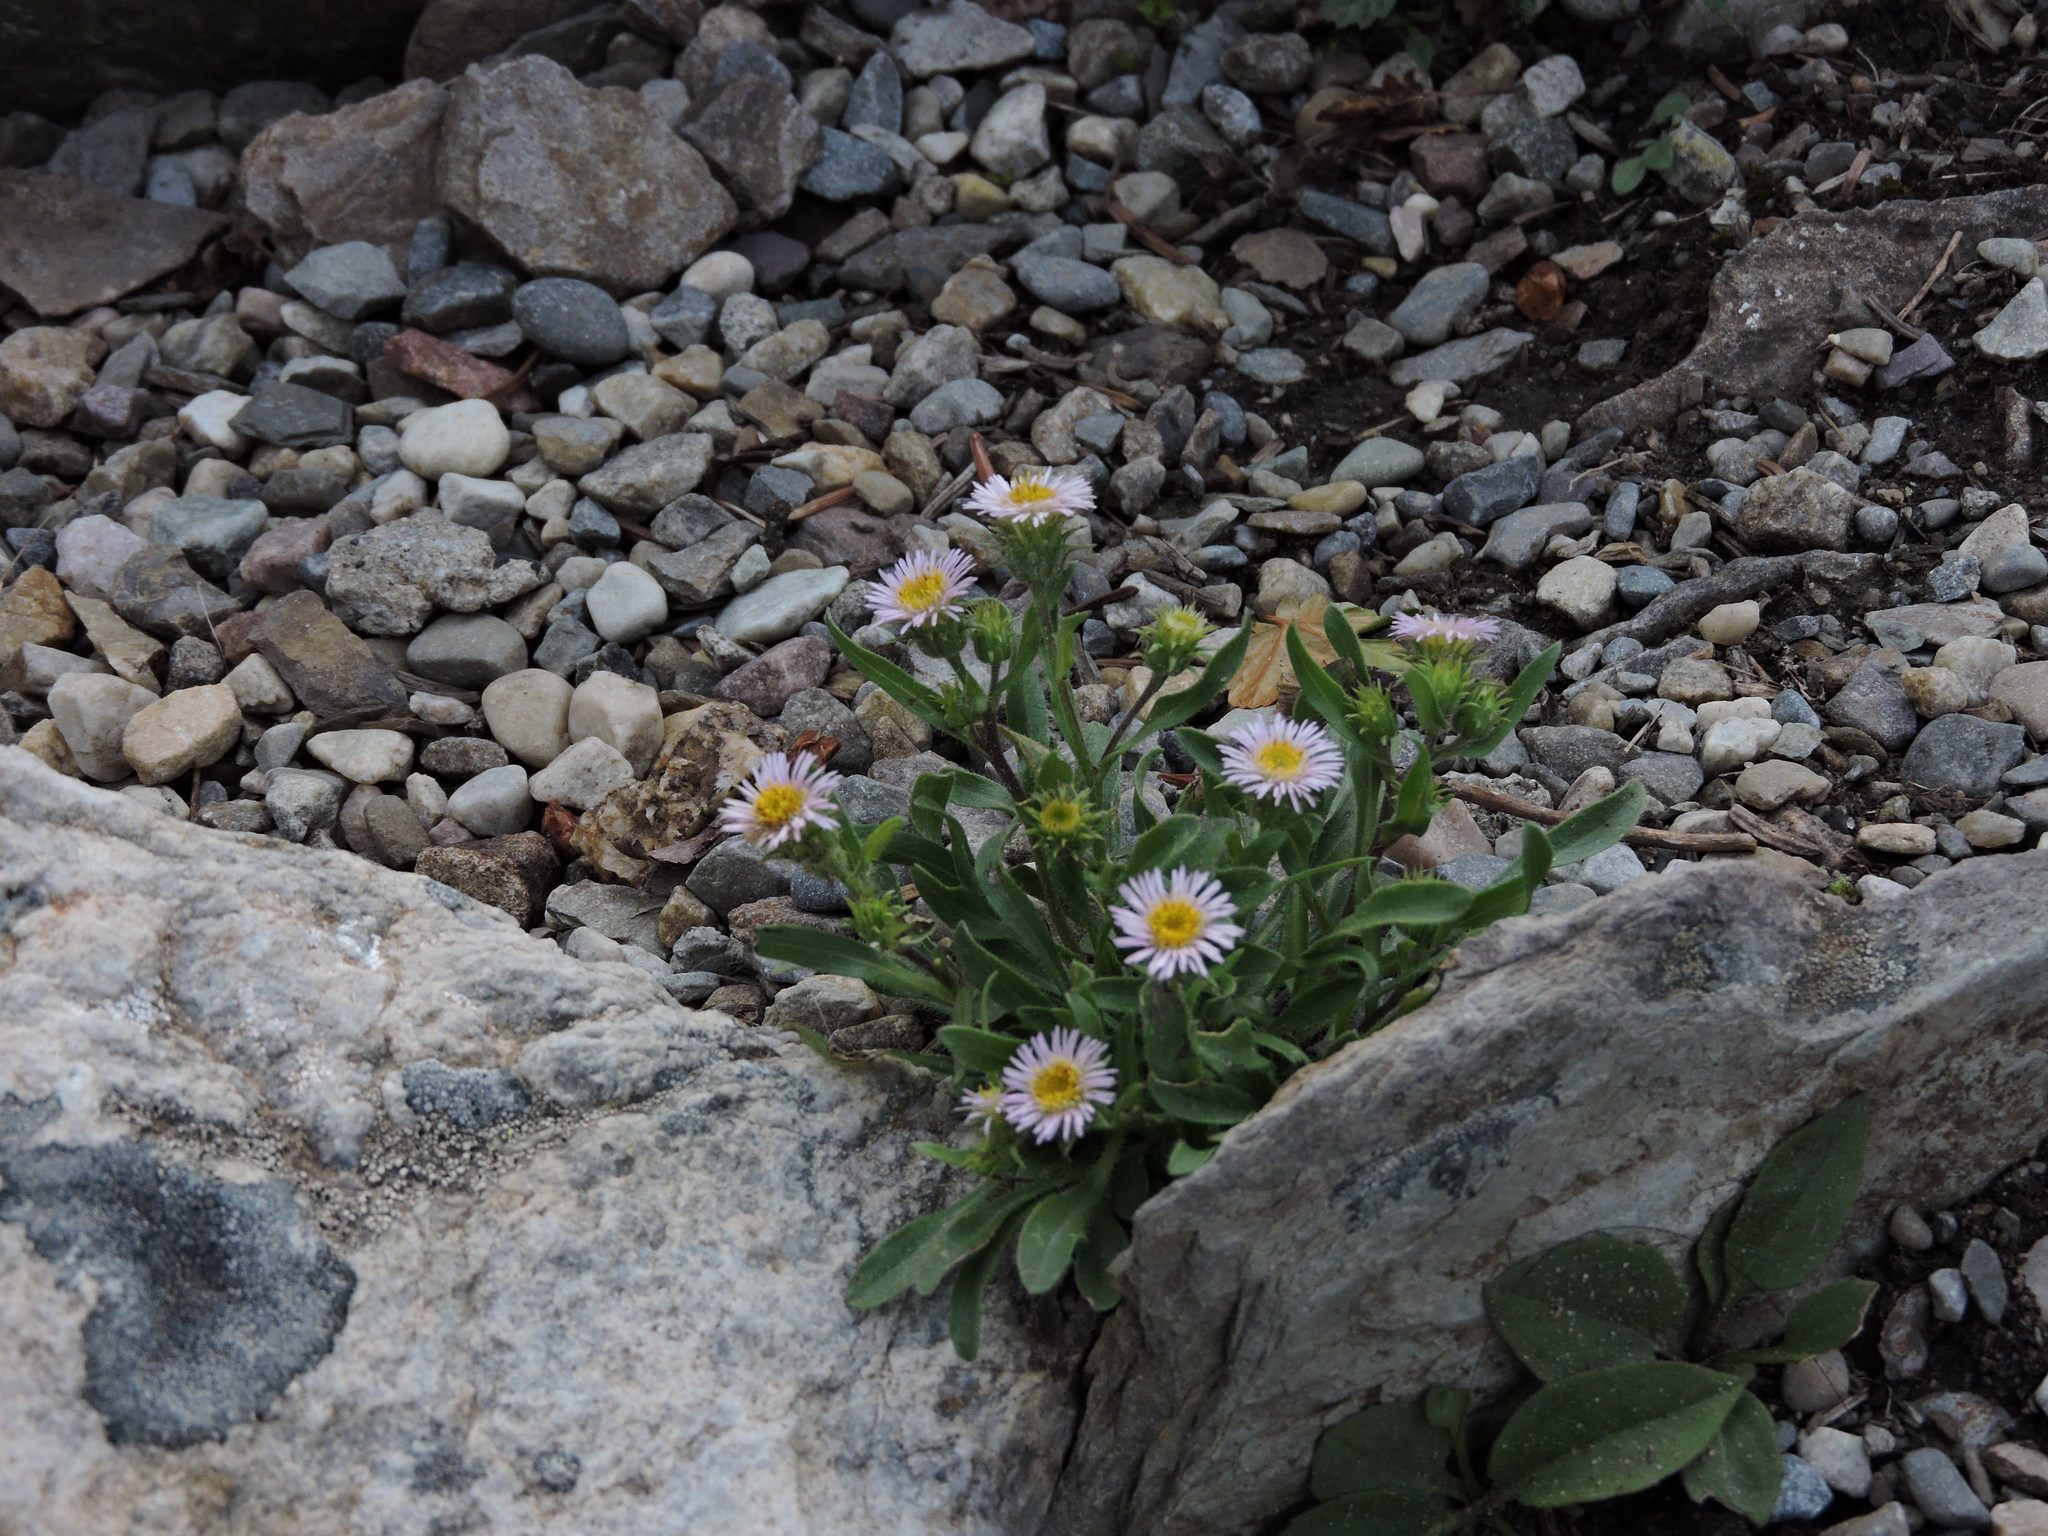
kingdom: Plantae
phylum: Tracheophyta
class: Magnoliopsida
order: Asterales
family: Asteraceae
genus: Erigeron
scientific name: Erigeron nivalis
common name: Snow fleabane
